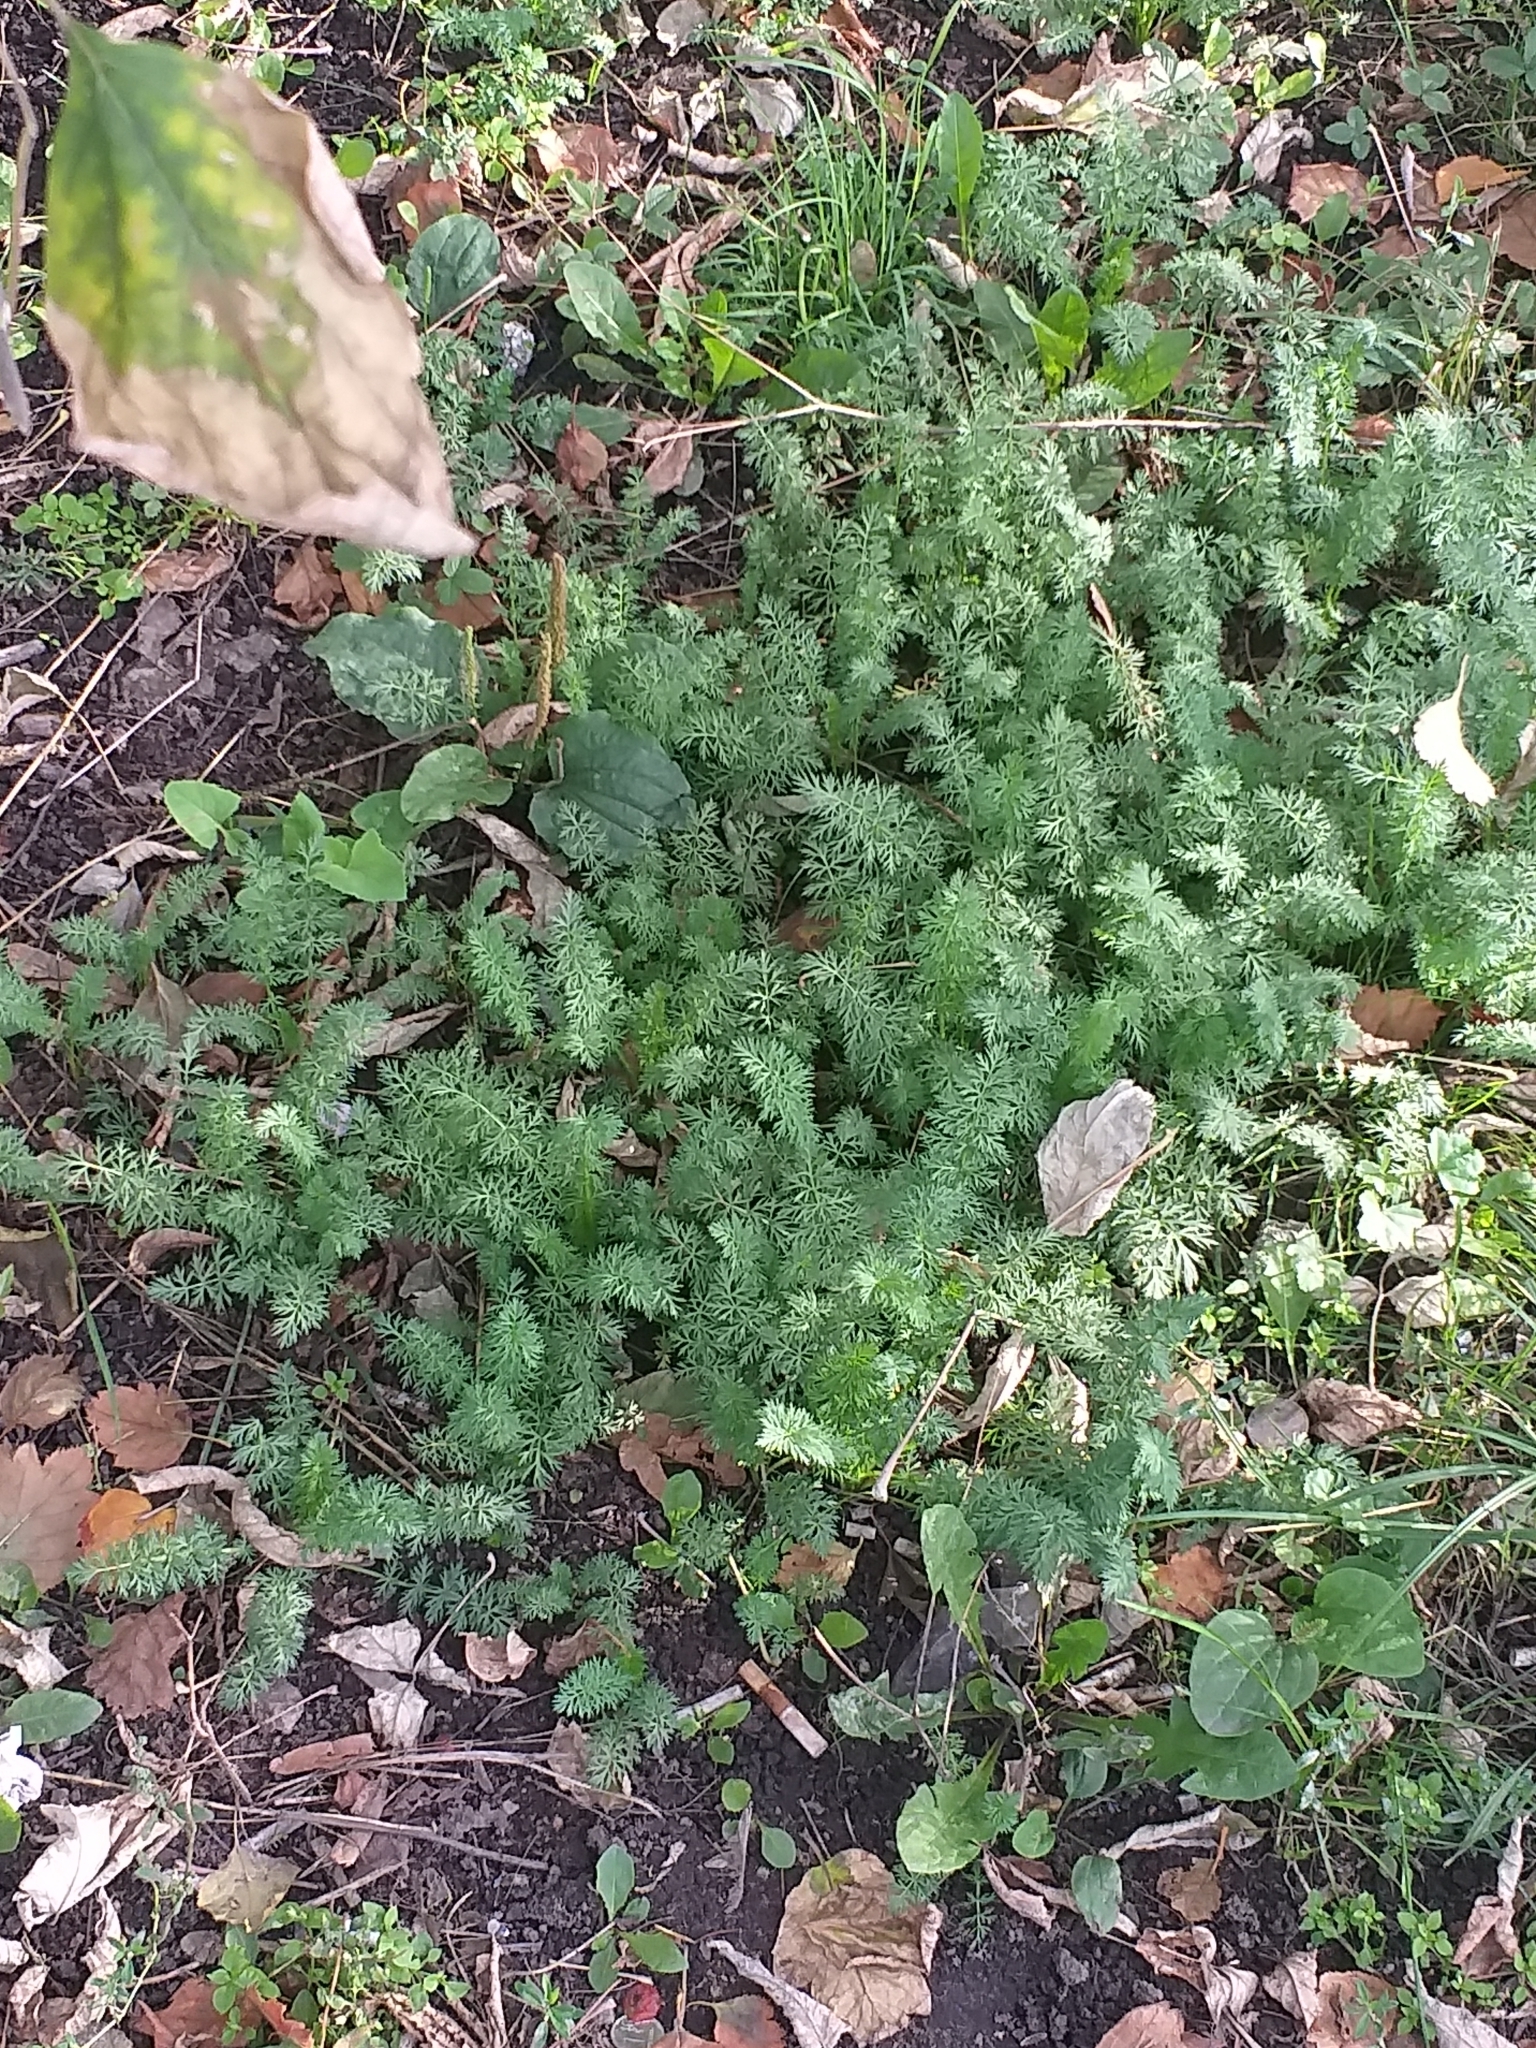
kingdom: Plantae
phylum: Tracheophyta
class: Magnoliopsida
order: Apiales
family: Apiaceae
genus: Carum
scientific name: Carum carvi
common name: Caraway
